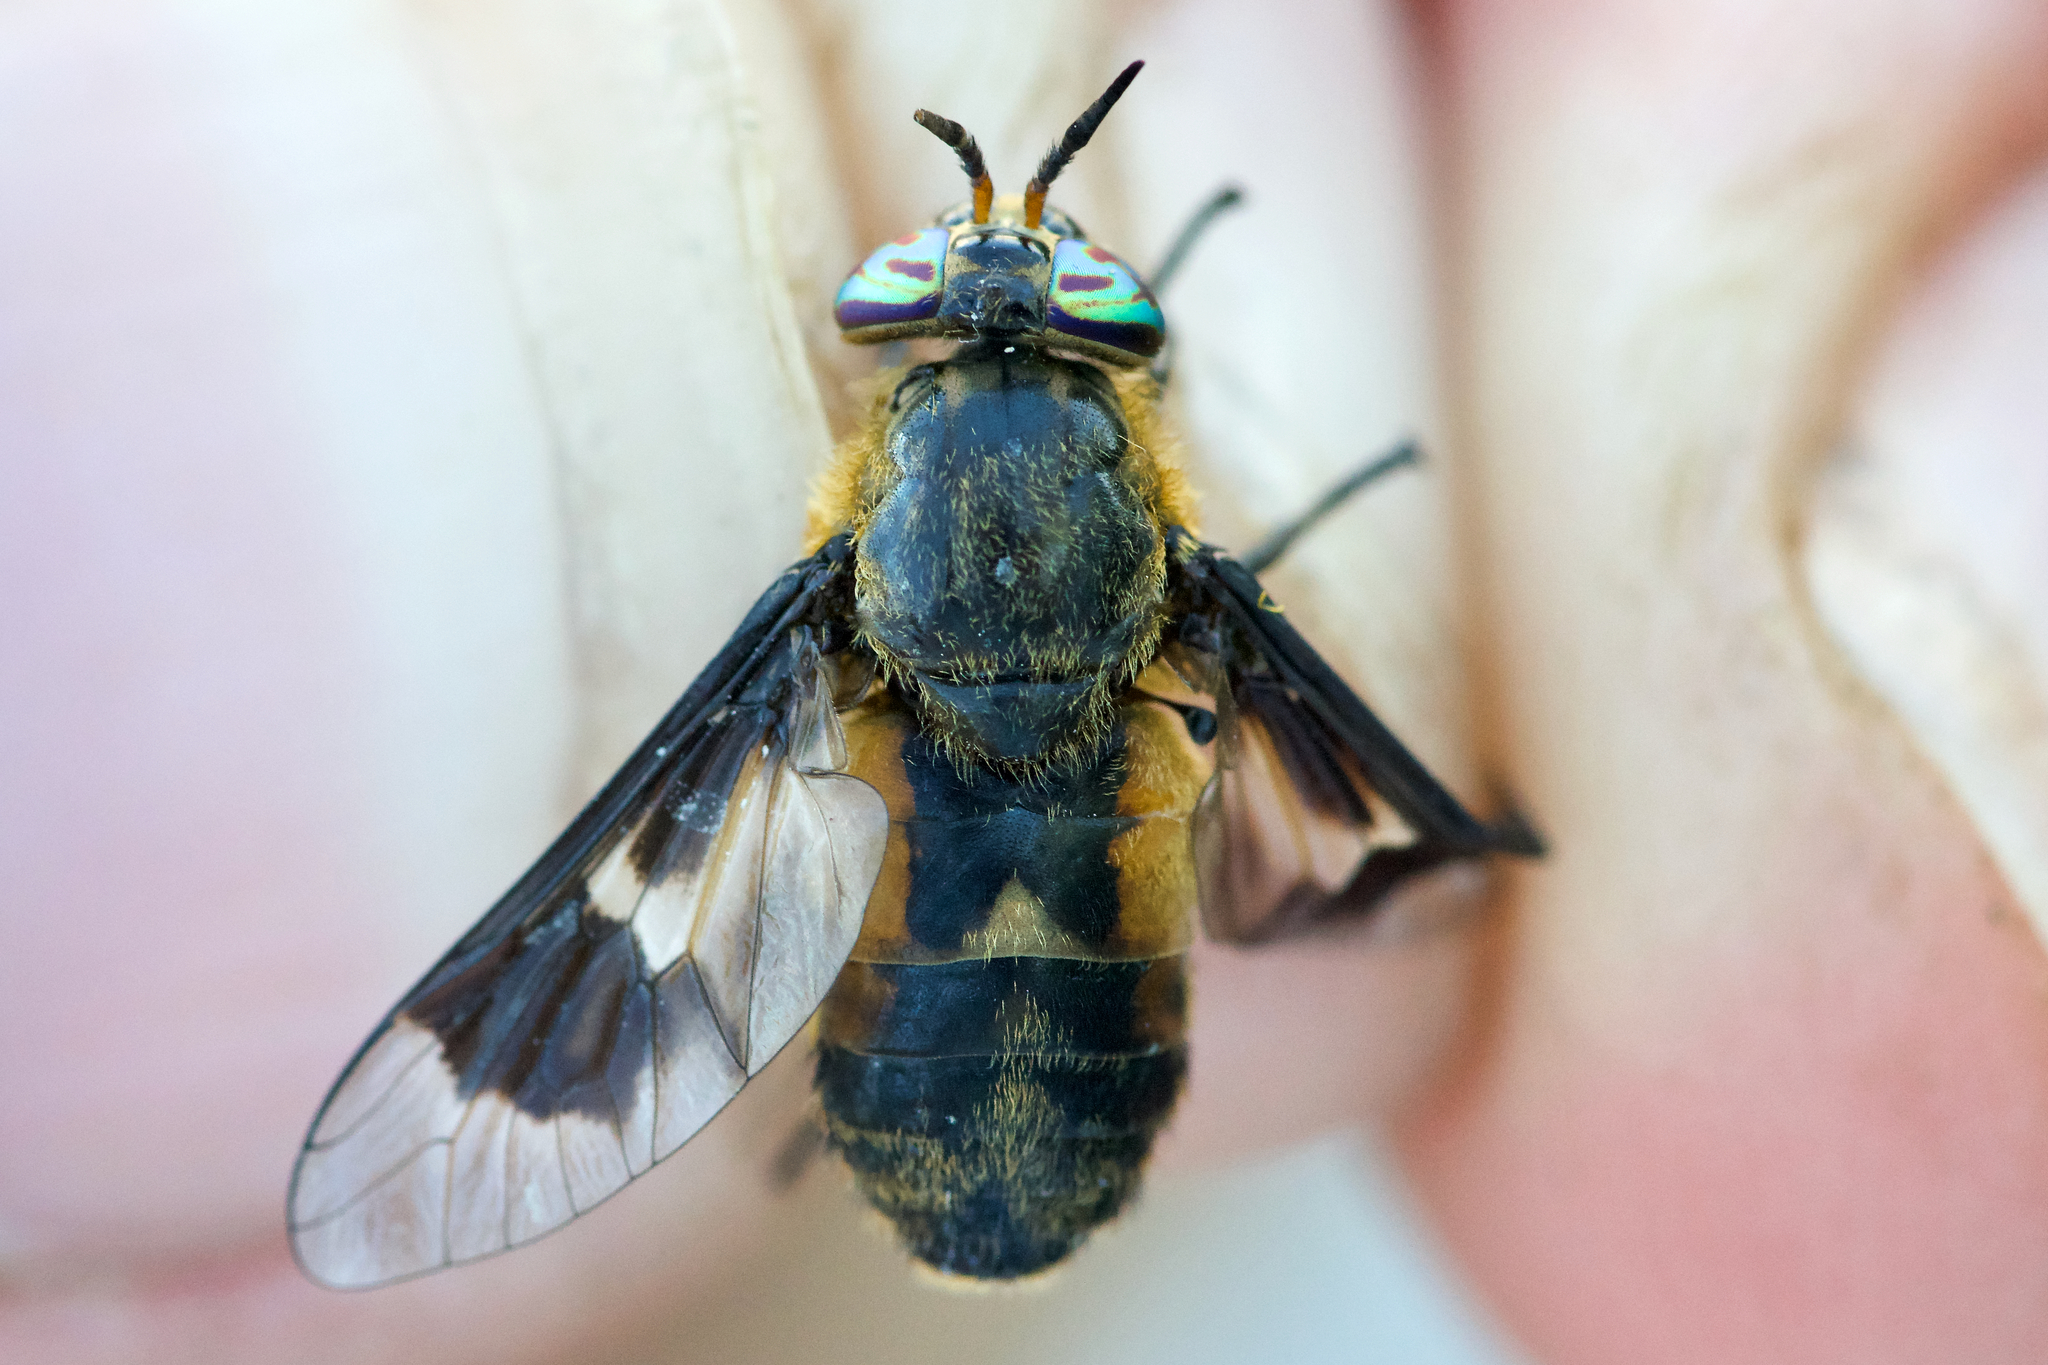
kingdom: Animalia
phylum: Arthropoda
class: Insecta
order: Diptera
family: Tabanidae
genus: Chrysops
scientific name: Chrysops excitans
